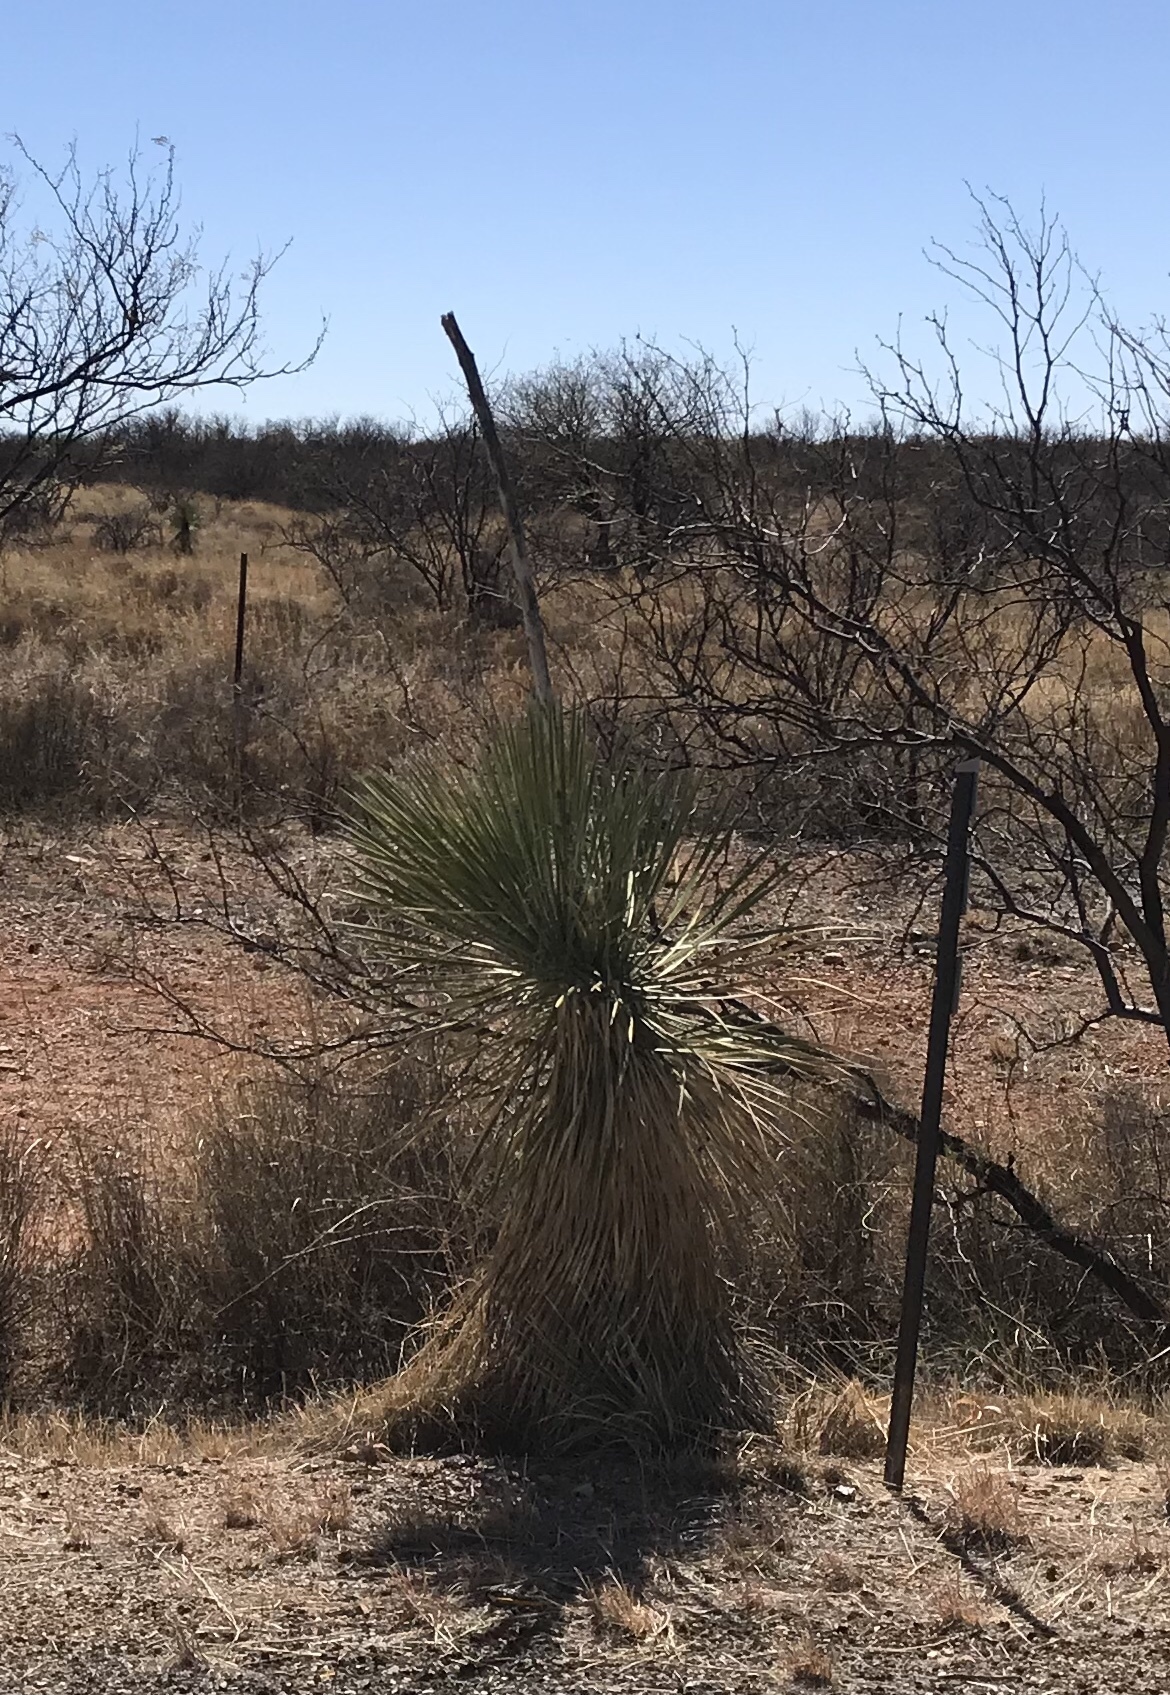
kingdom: Plantae
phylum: Tracheophyta
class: Liliopsida
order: Asparagales
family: Asparagaceae
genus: Yucca
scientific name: Yucca elata
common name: Palmella
